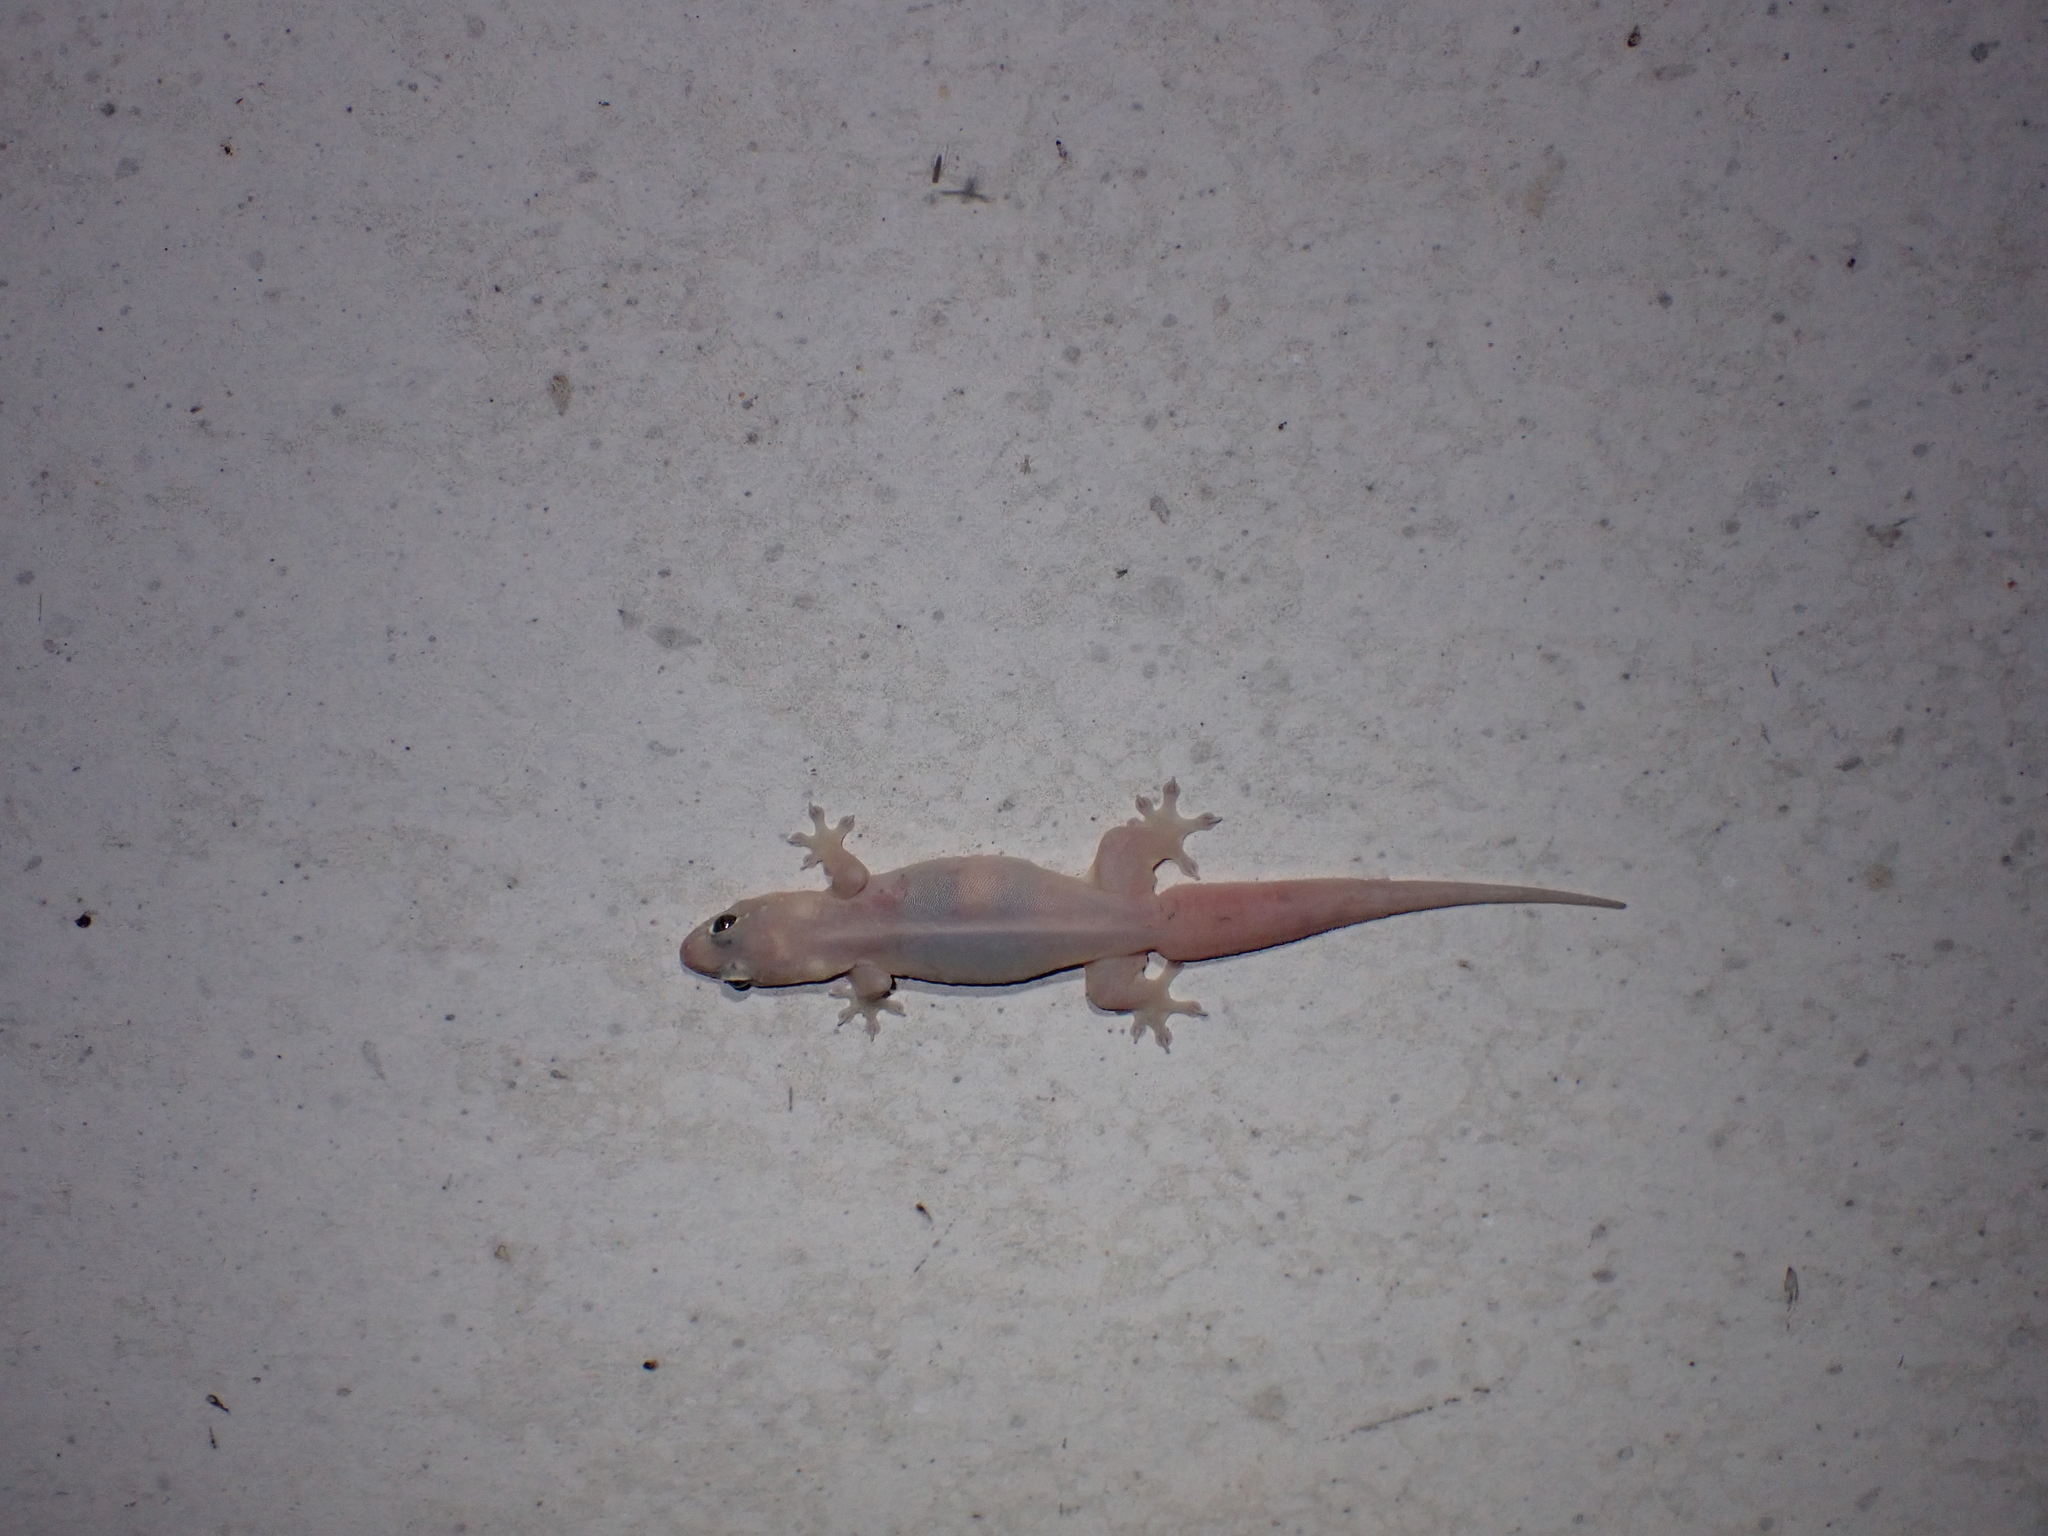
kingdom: Animalia
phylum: Chordata
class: Squamata
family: Gekkonidae
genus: Gehyra
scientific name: Gehyra mutilata
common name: Stump-toed gecko
